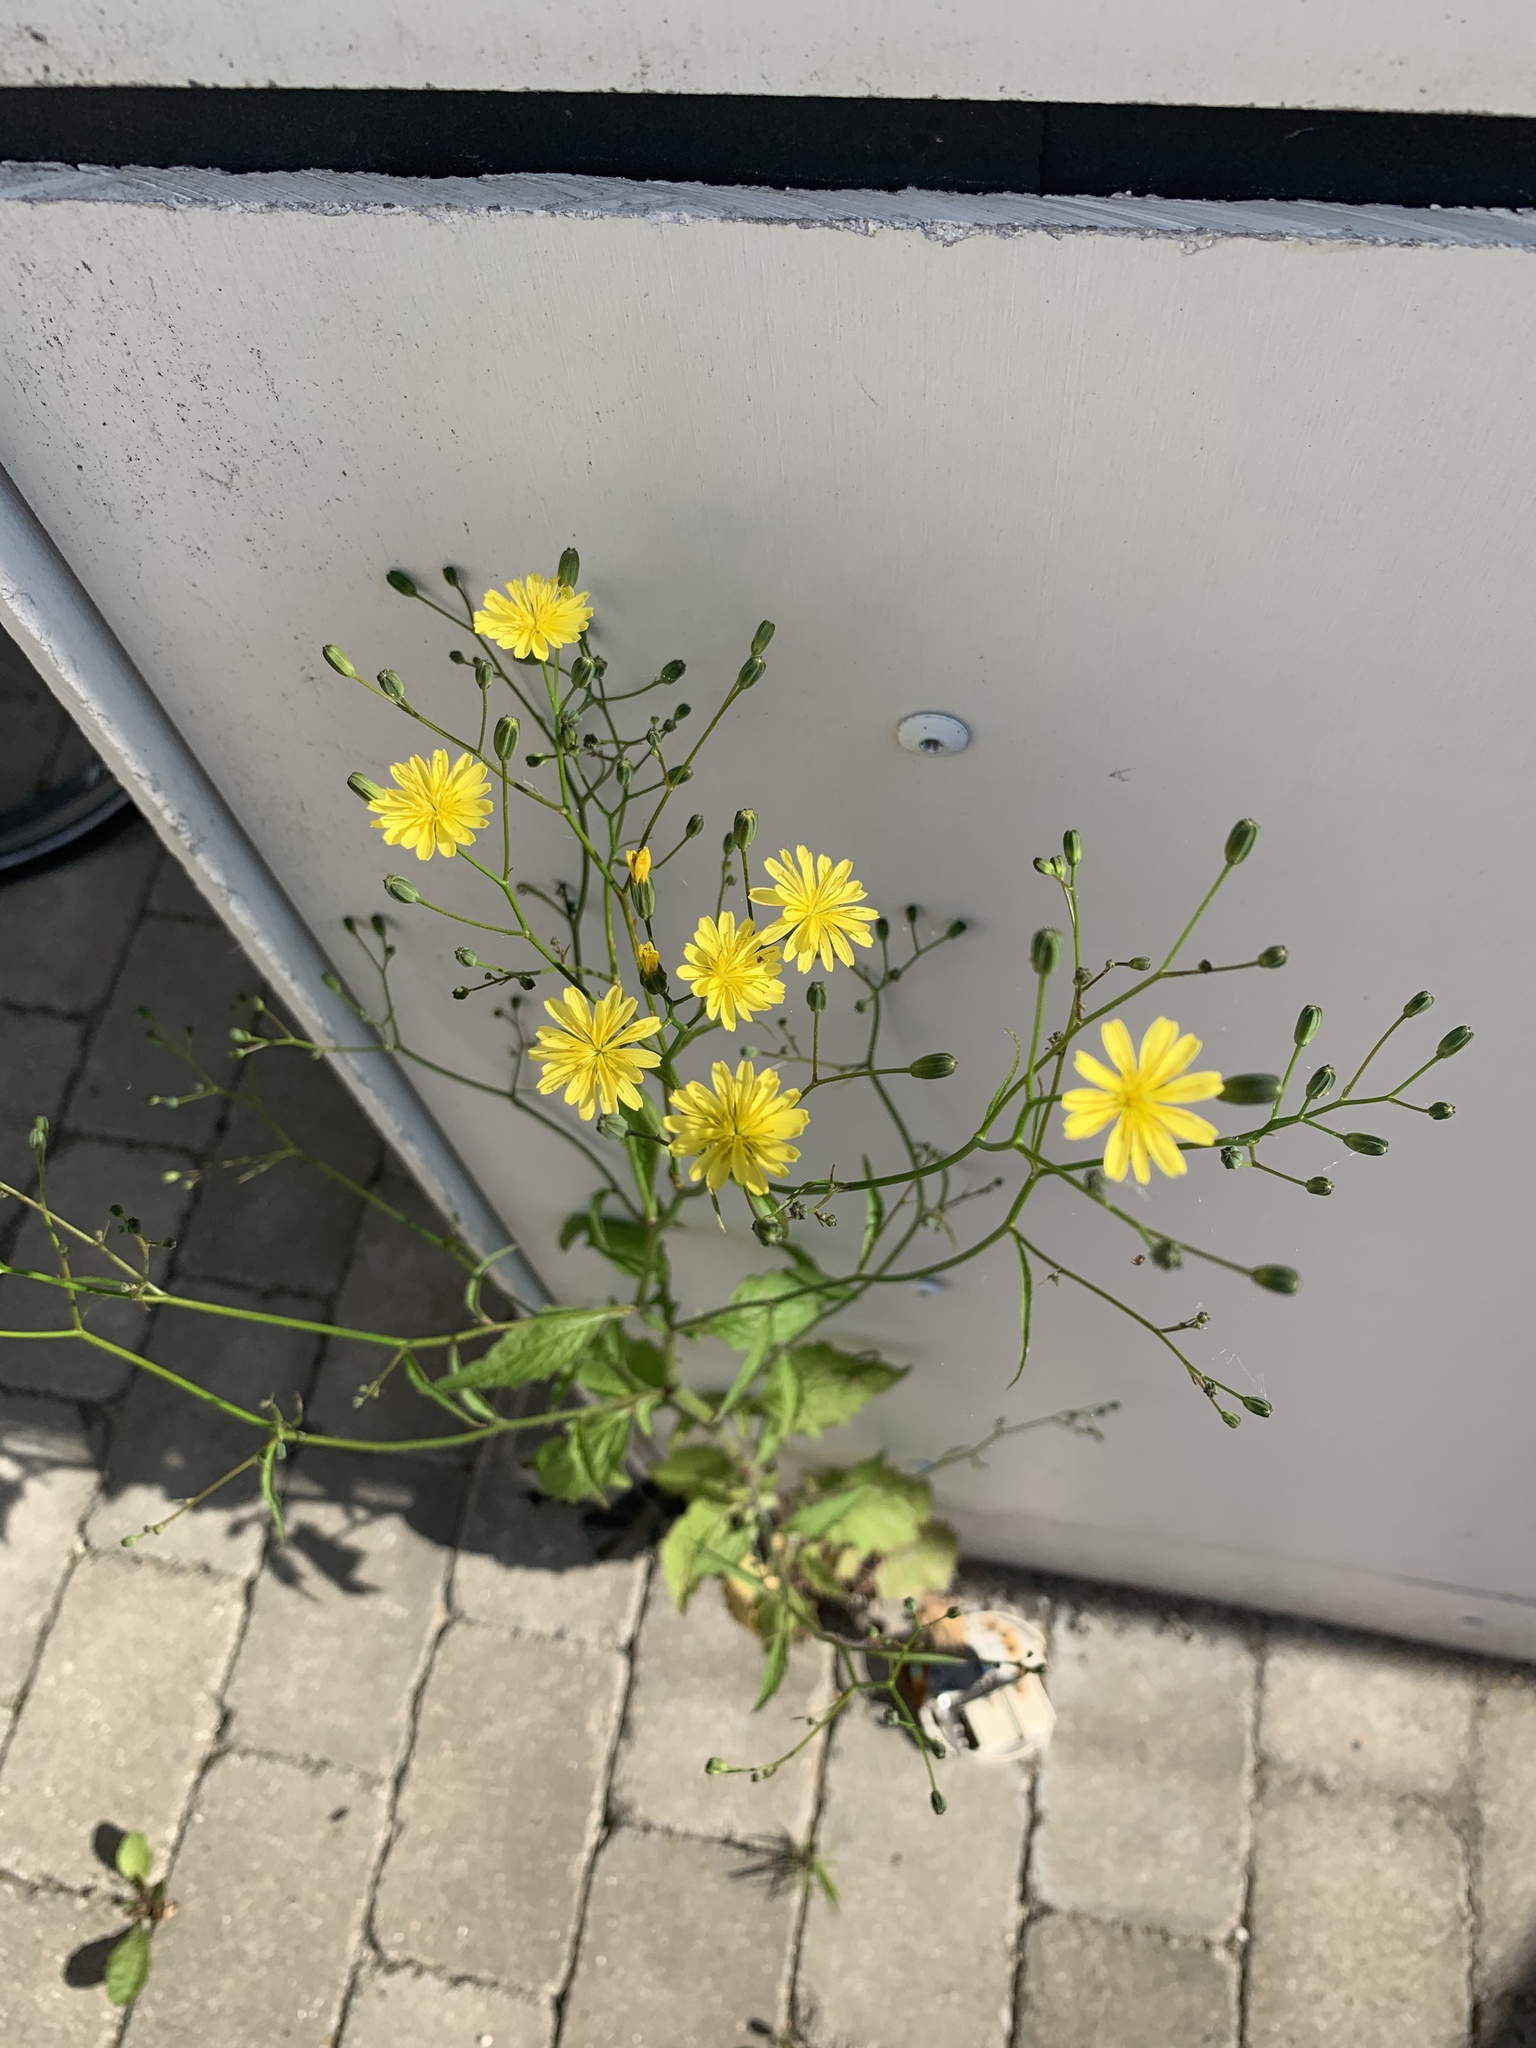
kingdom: Plantae
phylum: Tracheophyta
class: Magnoliopsida
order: Asterales
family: Asteraceae
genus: Lapsana
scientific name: Lapsana communis
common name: Nipplewort
